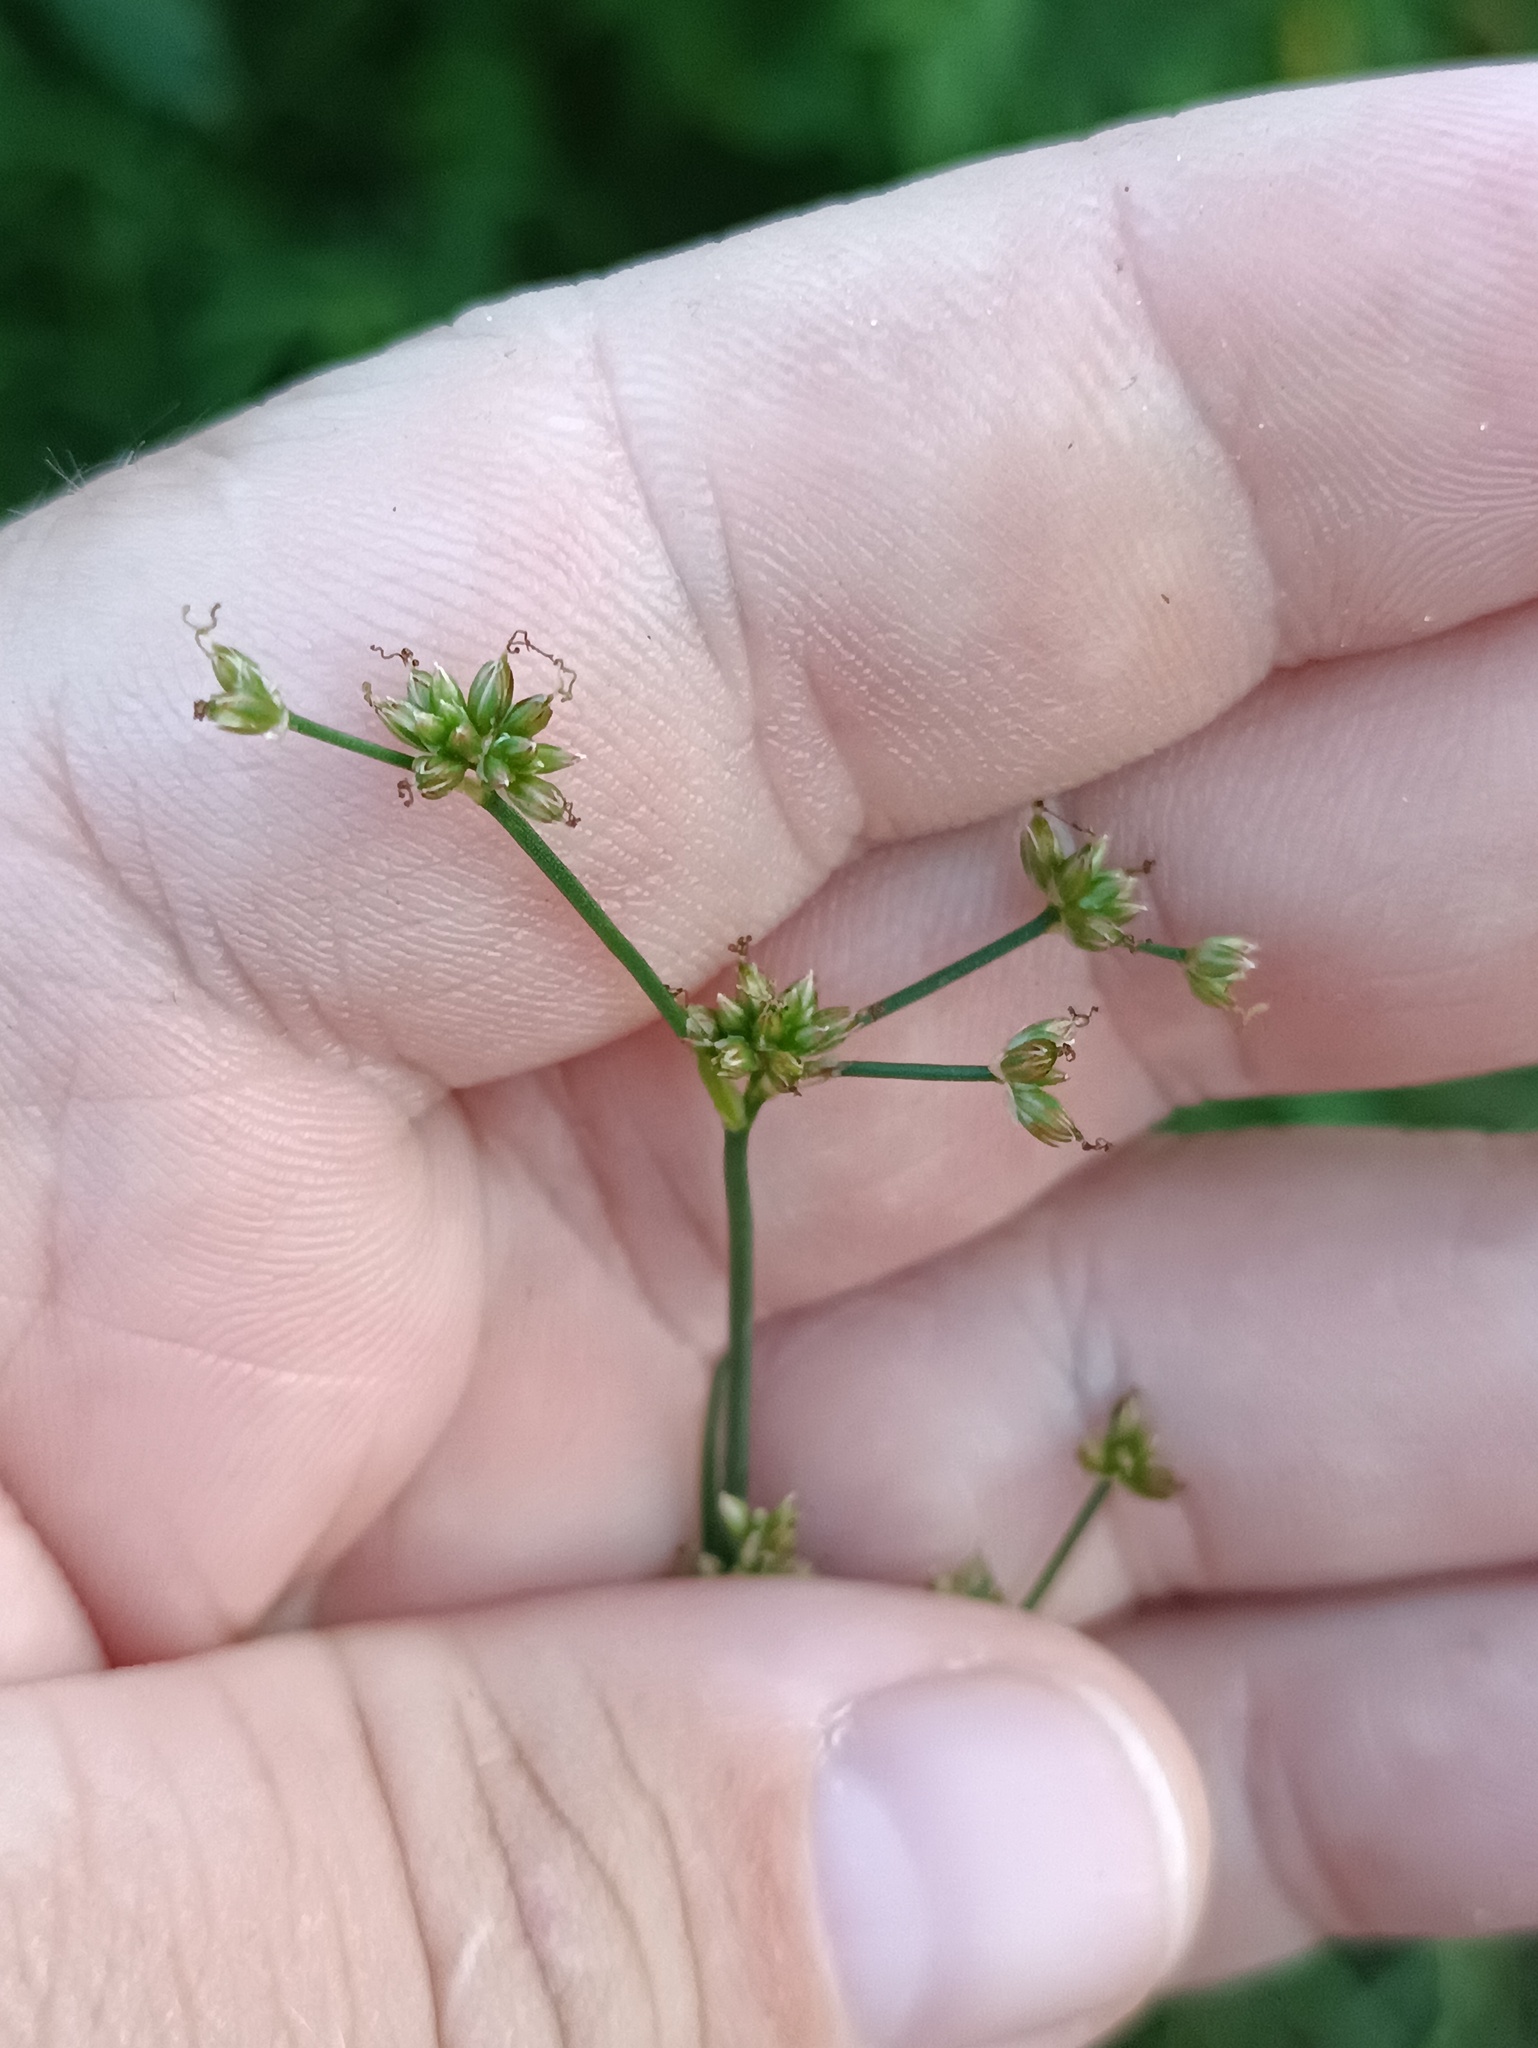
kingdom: Plantae
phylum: Tracheophyta
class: Liliopsida
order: Poales
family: Juncaceae
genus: Juncus
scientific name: Juncus articulatus
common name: Jointed rush
